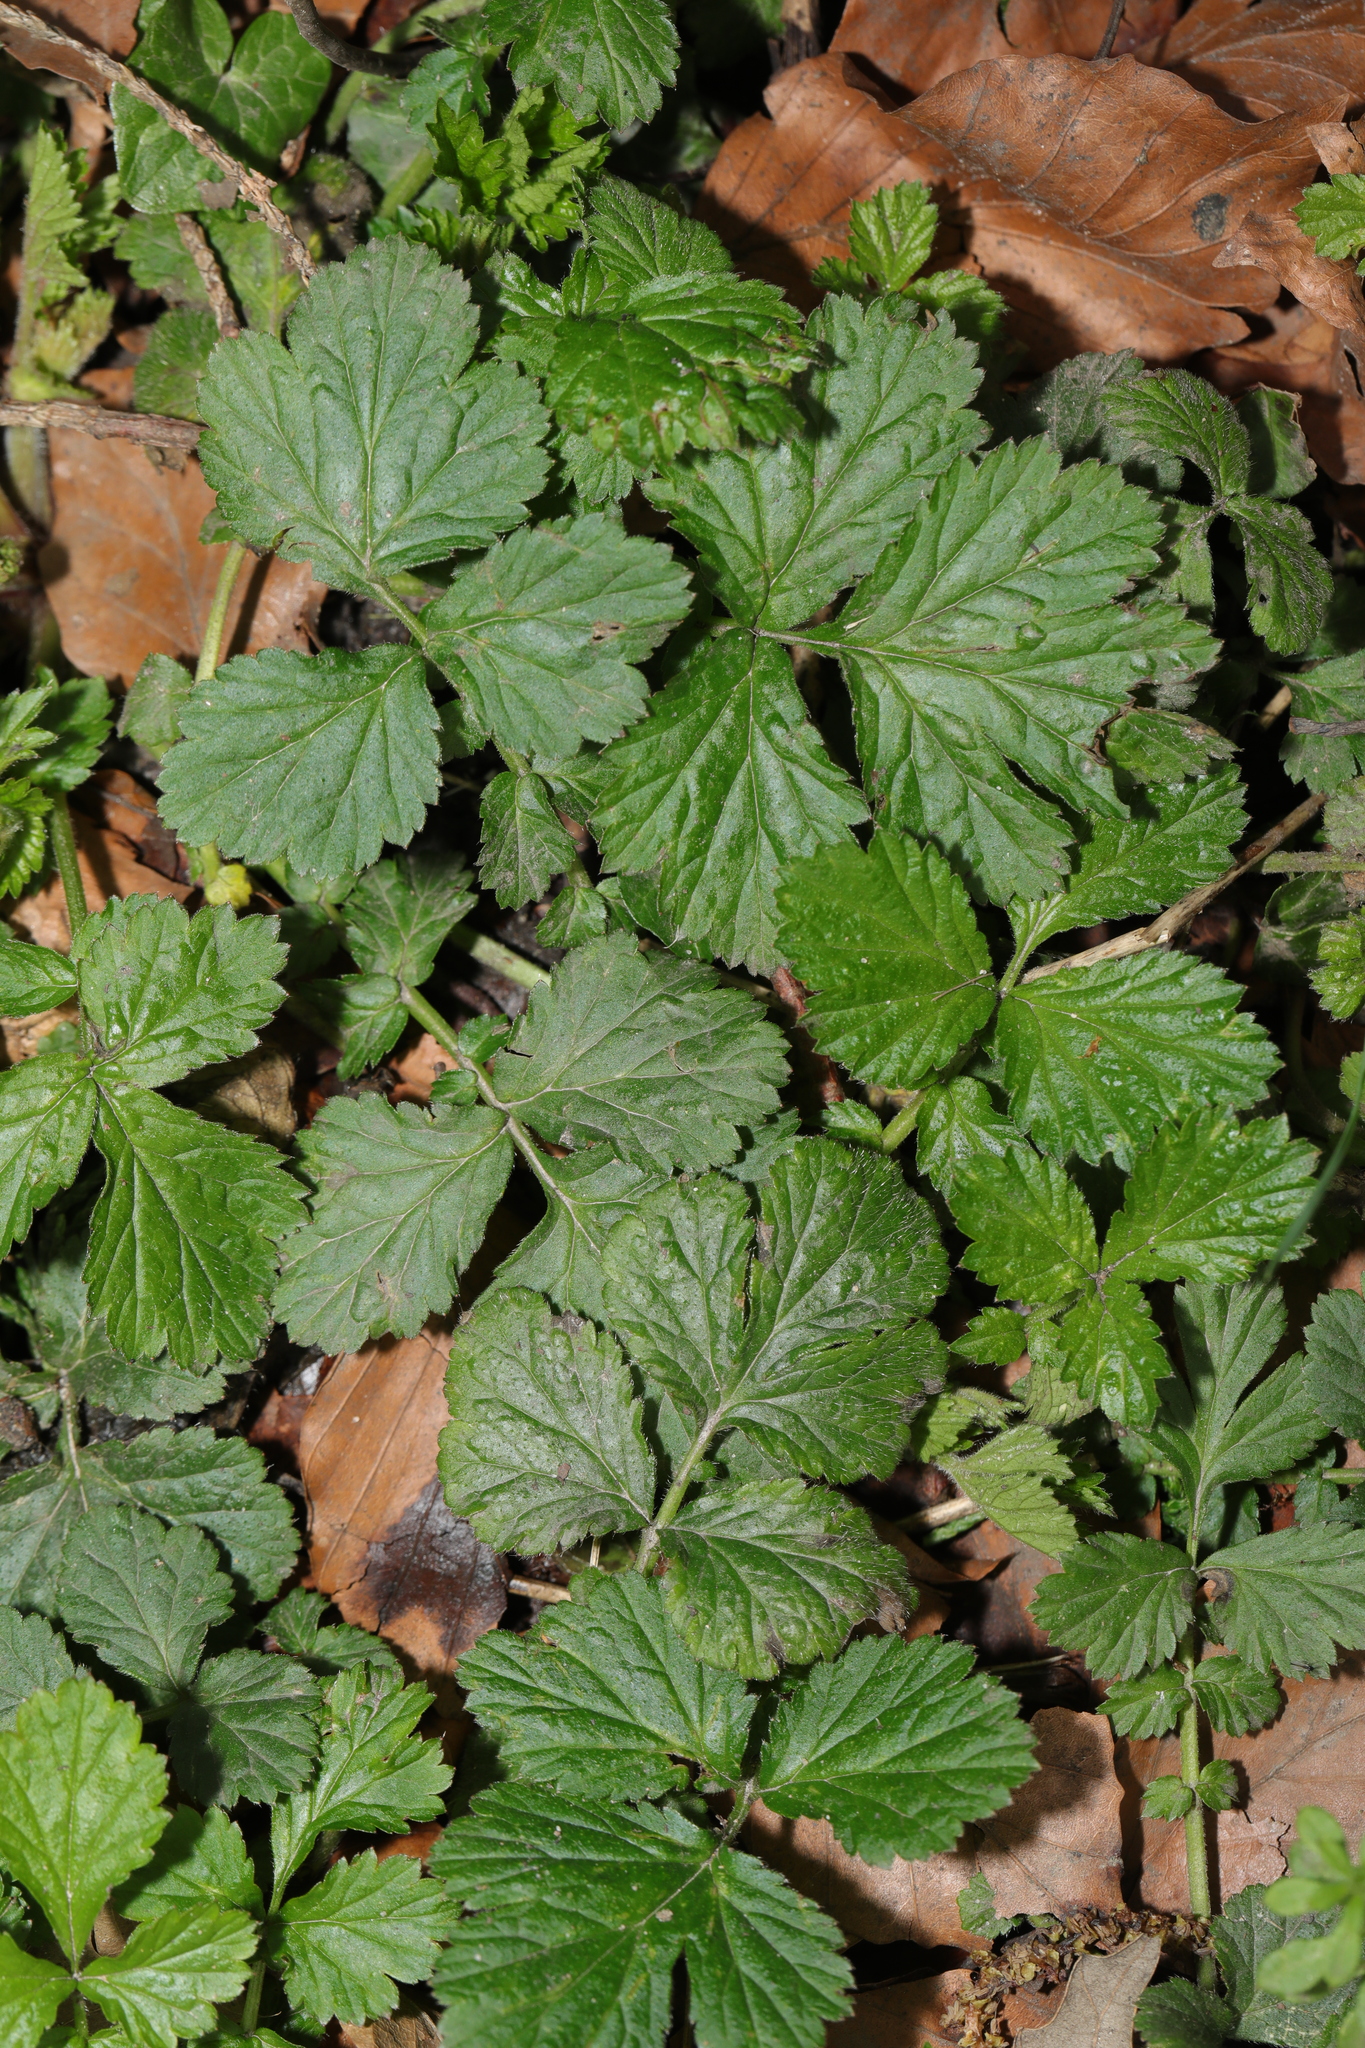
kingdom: Plantae
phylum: Tracheophyta
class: Magnoliopsida
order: Rosales
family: Rosaceae
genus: Geum
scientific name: Geum urbanum
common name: Wood avens
